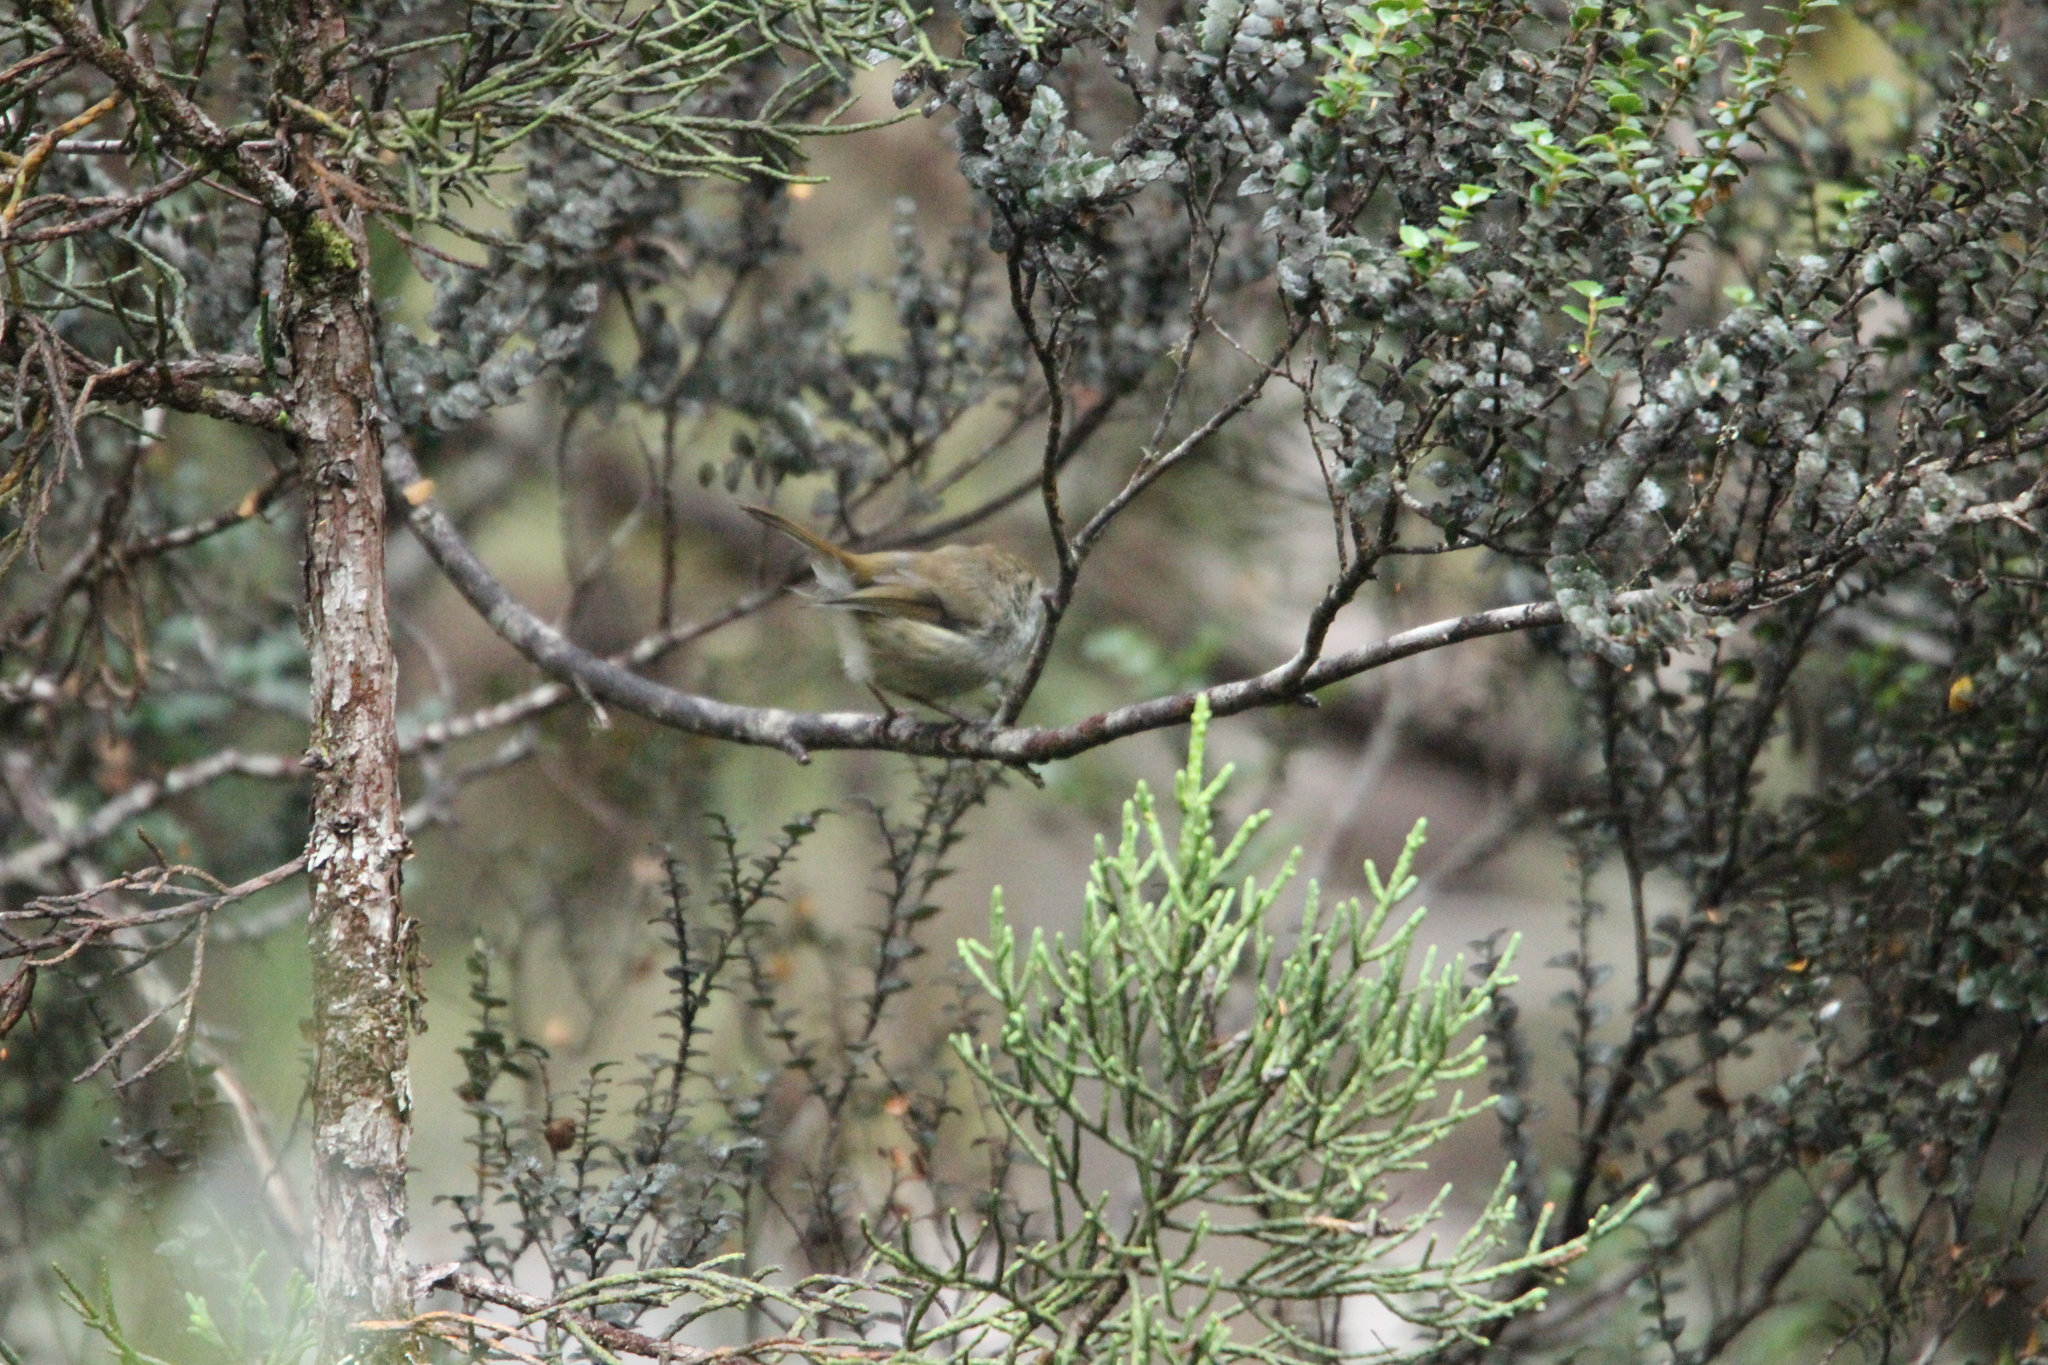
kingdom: Animalia
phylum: Chordata
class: Aves
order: Passeriformes
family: Acanthizidae
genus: Acanthiza
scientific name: Acanthiza ewingii
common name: Tasmanian thornbill
